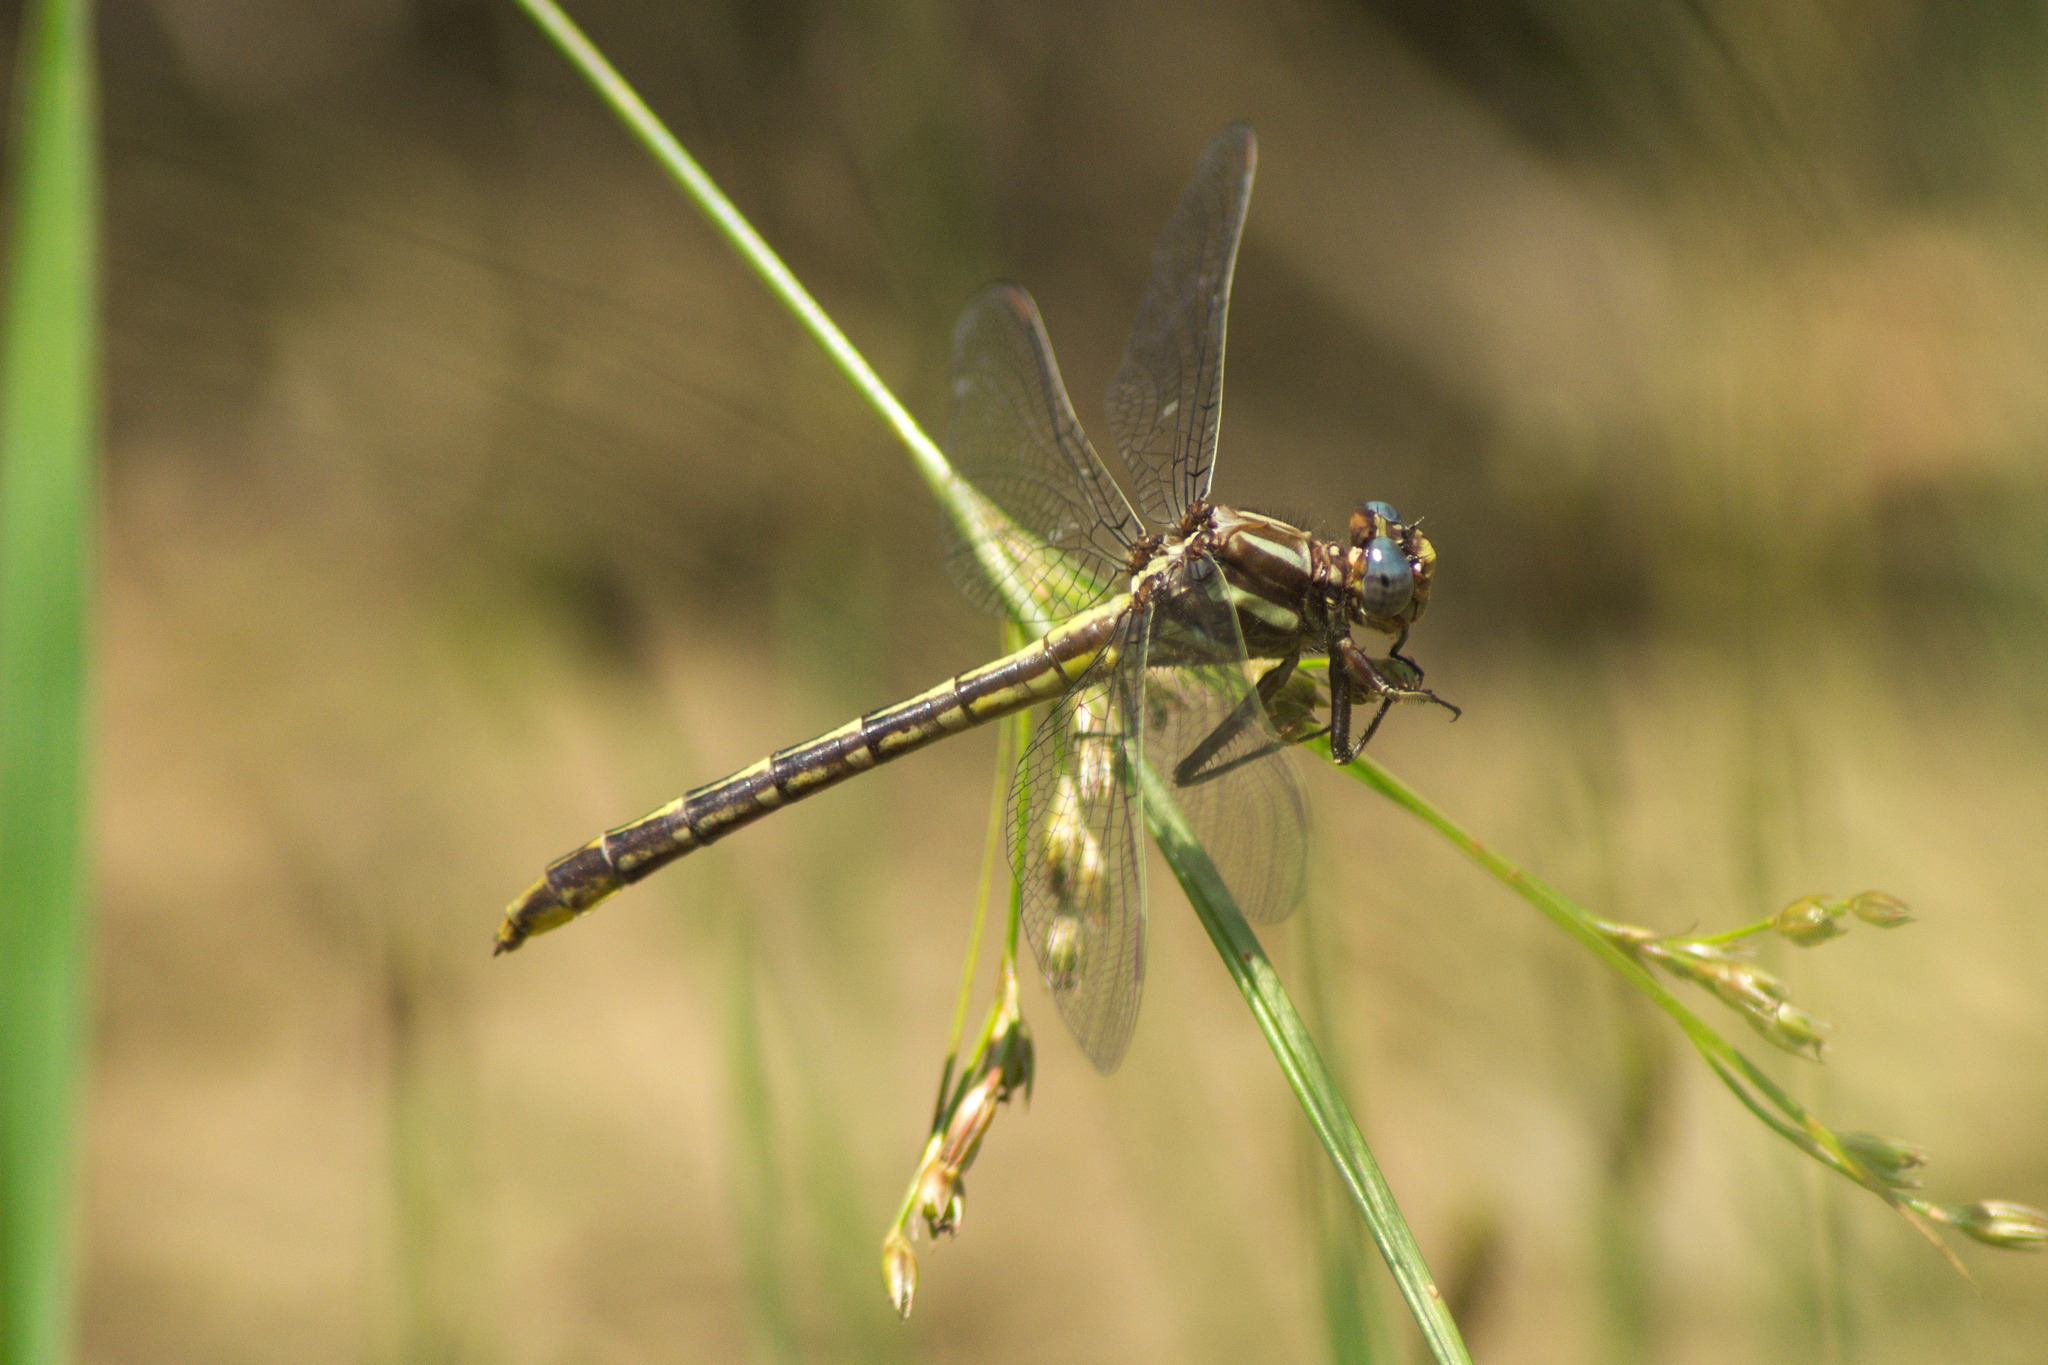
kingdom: Animalia
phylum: Arthropoda
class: Insecta
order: Odonata
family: Gomphidae
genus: Phanogomphus
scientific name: Phanogomphus exilis
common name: Lancet clubtail
